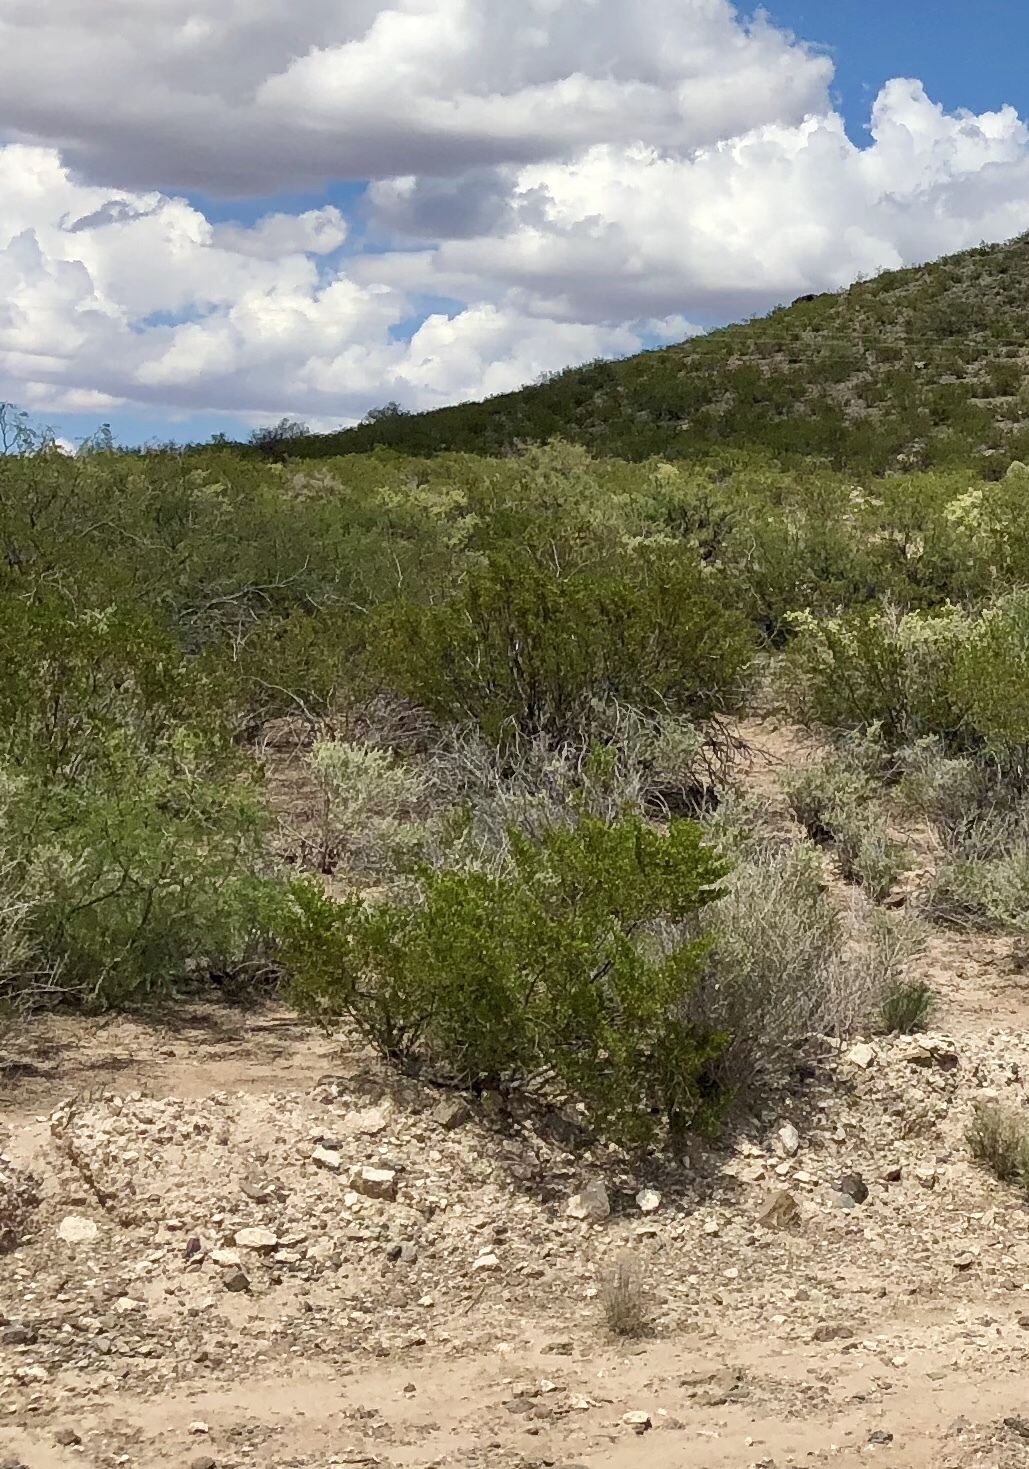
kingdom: Plantae
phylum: Tracheophyta
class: Magnoliopsida
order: Zygophyllales
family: Zygophyllaceae
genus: Larrea
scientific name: Larrea tridentata
